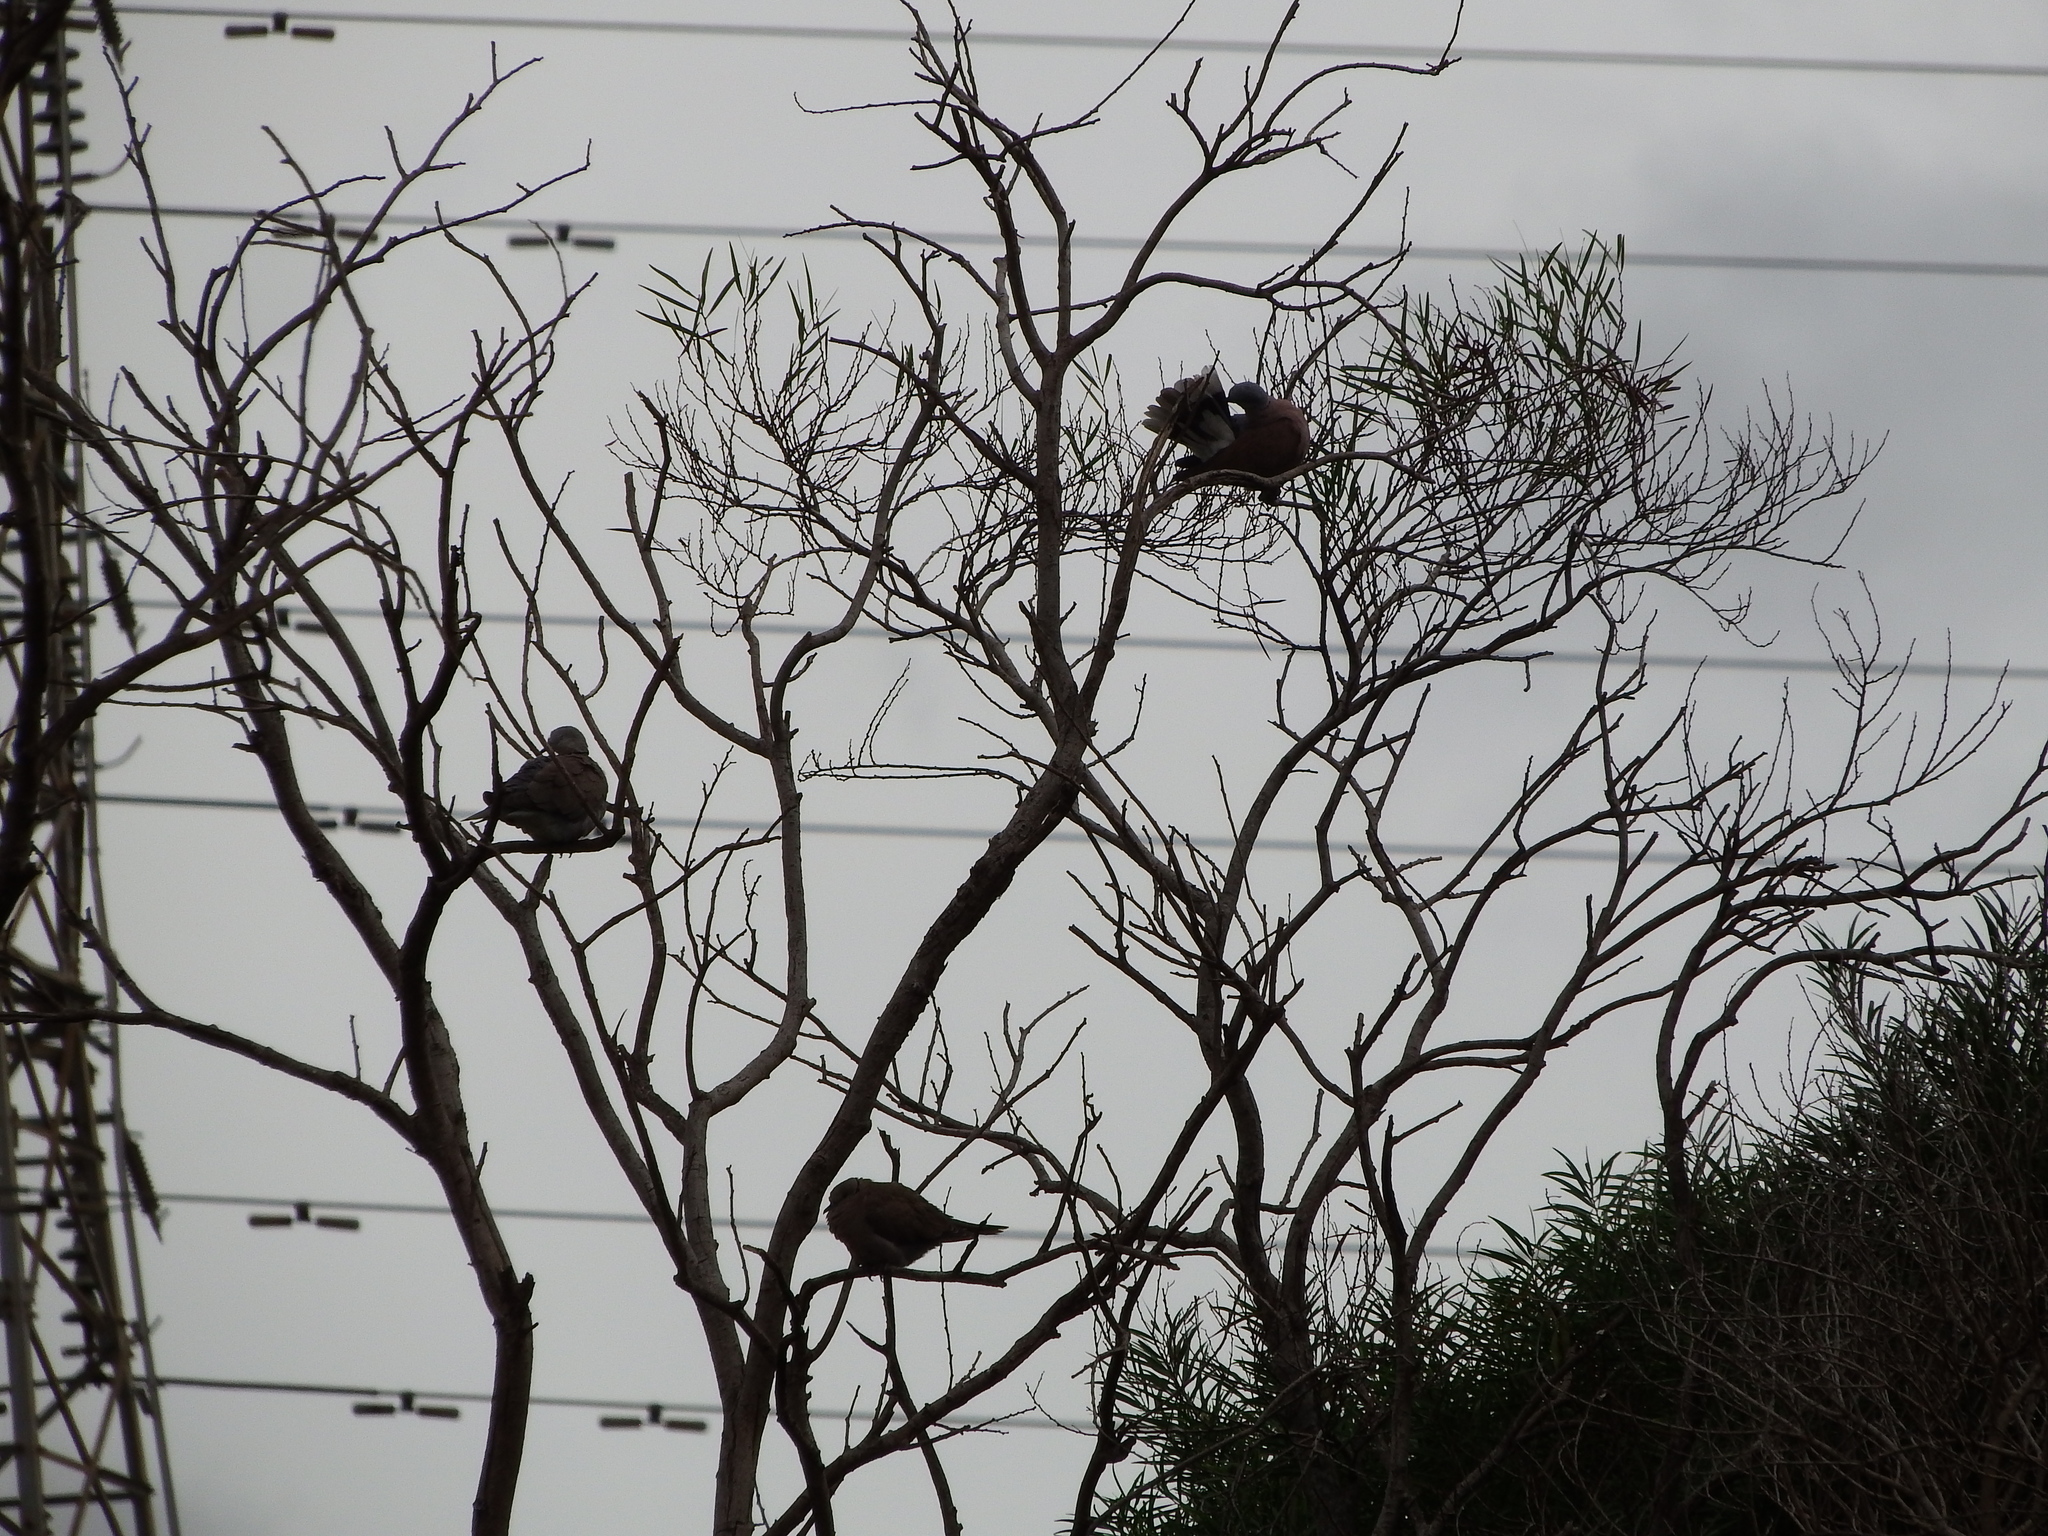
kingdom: Animalia
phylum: Chordata
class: Aves
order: Columbiformes
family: Columbidae
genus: Streptopelia
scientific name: Streptopelia tranquebarica
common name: Red turtle dove
